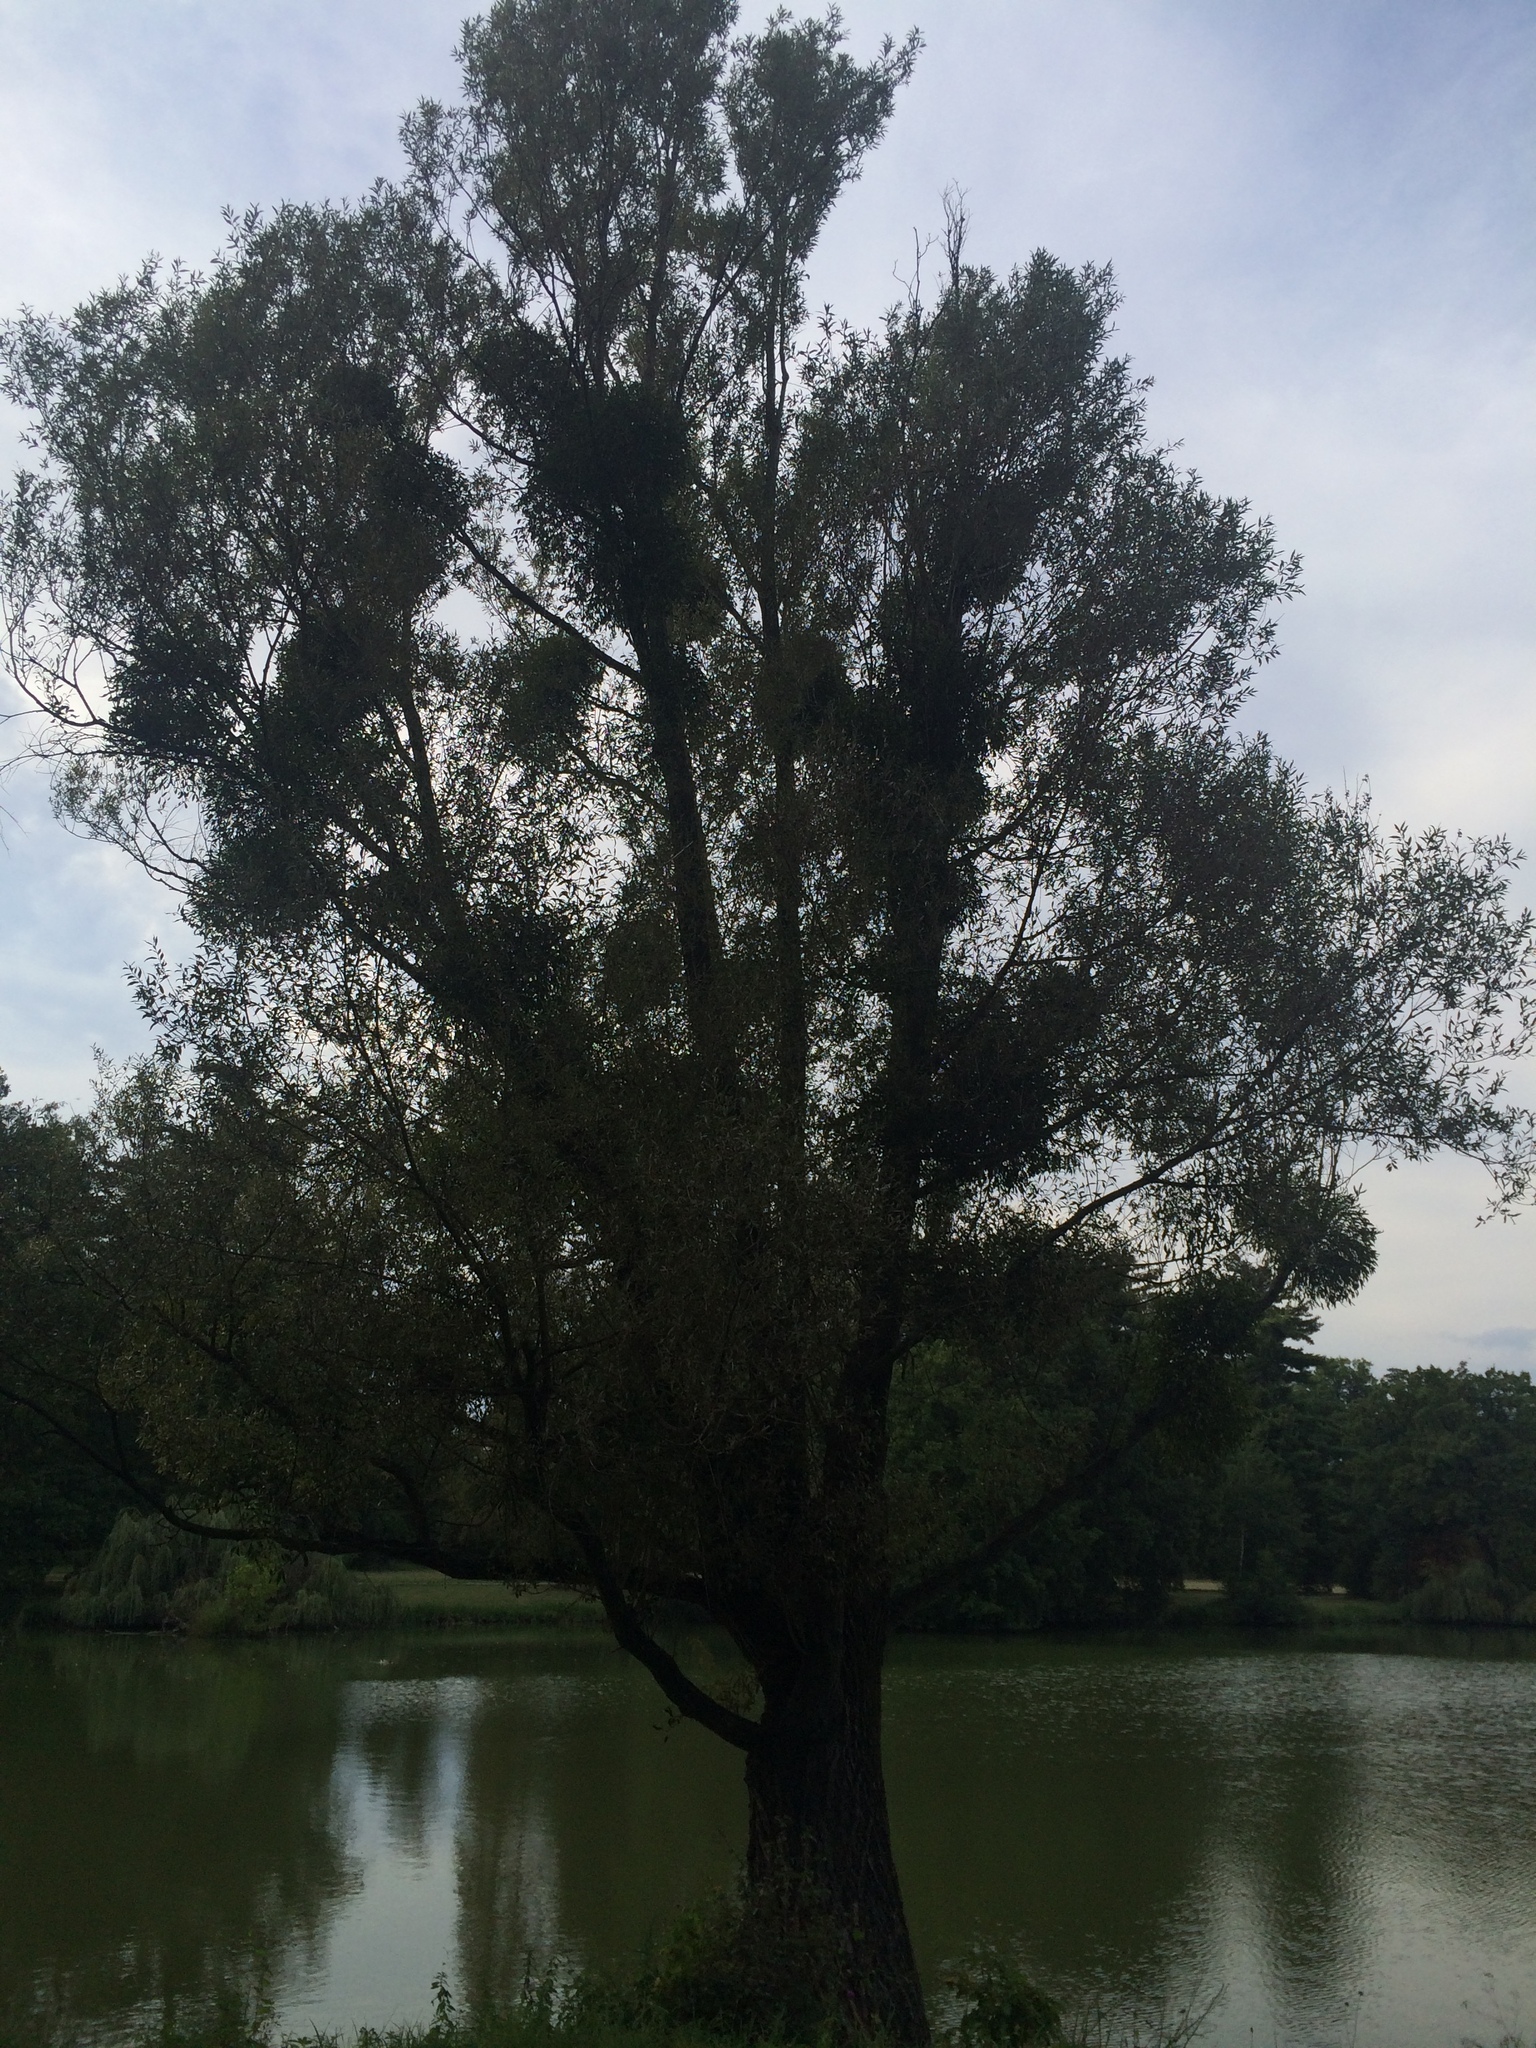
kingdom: Plantae
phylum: Tracheophyta
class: Magnoliopsida
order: Santalales
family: Viscaceae
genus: Viscum
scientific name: Viscum album
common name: Mistletoe
